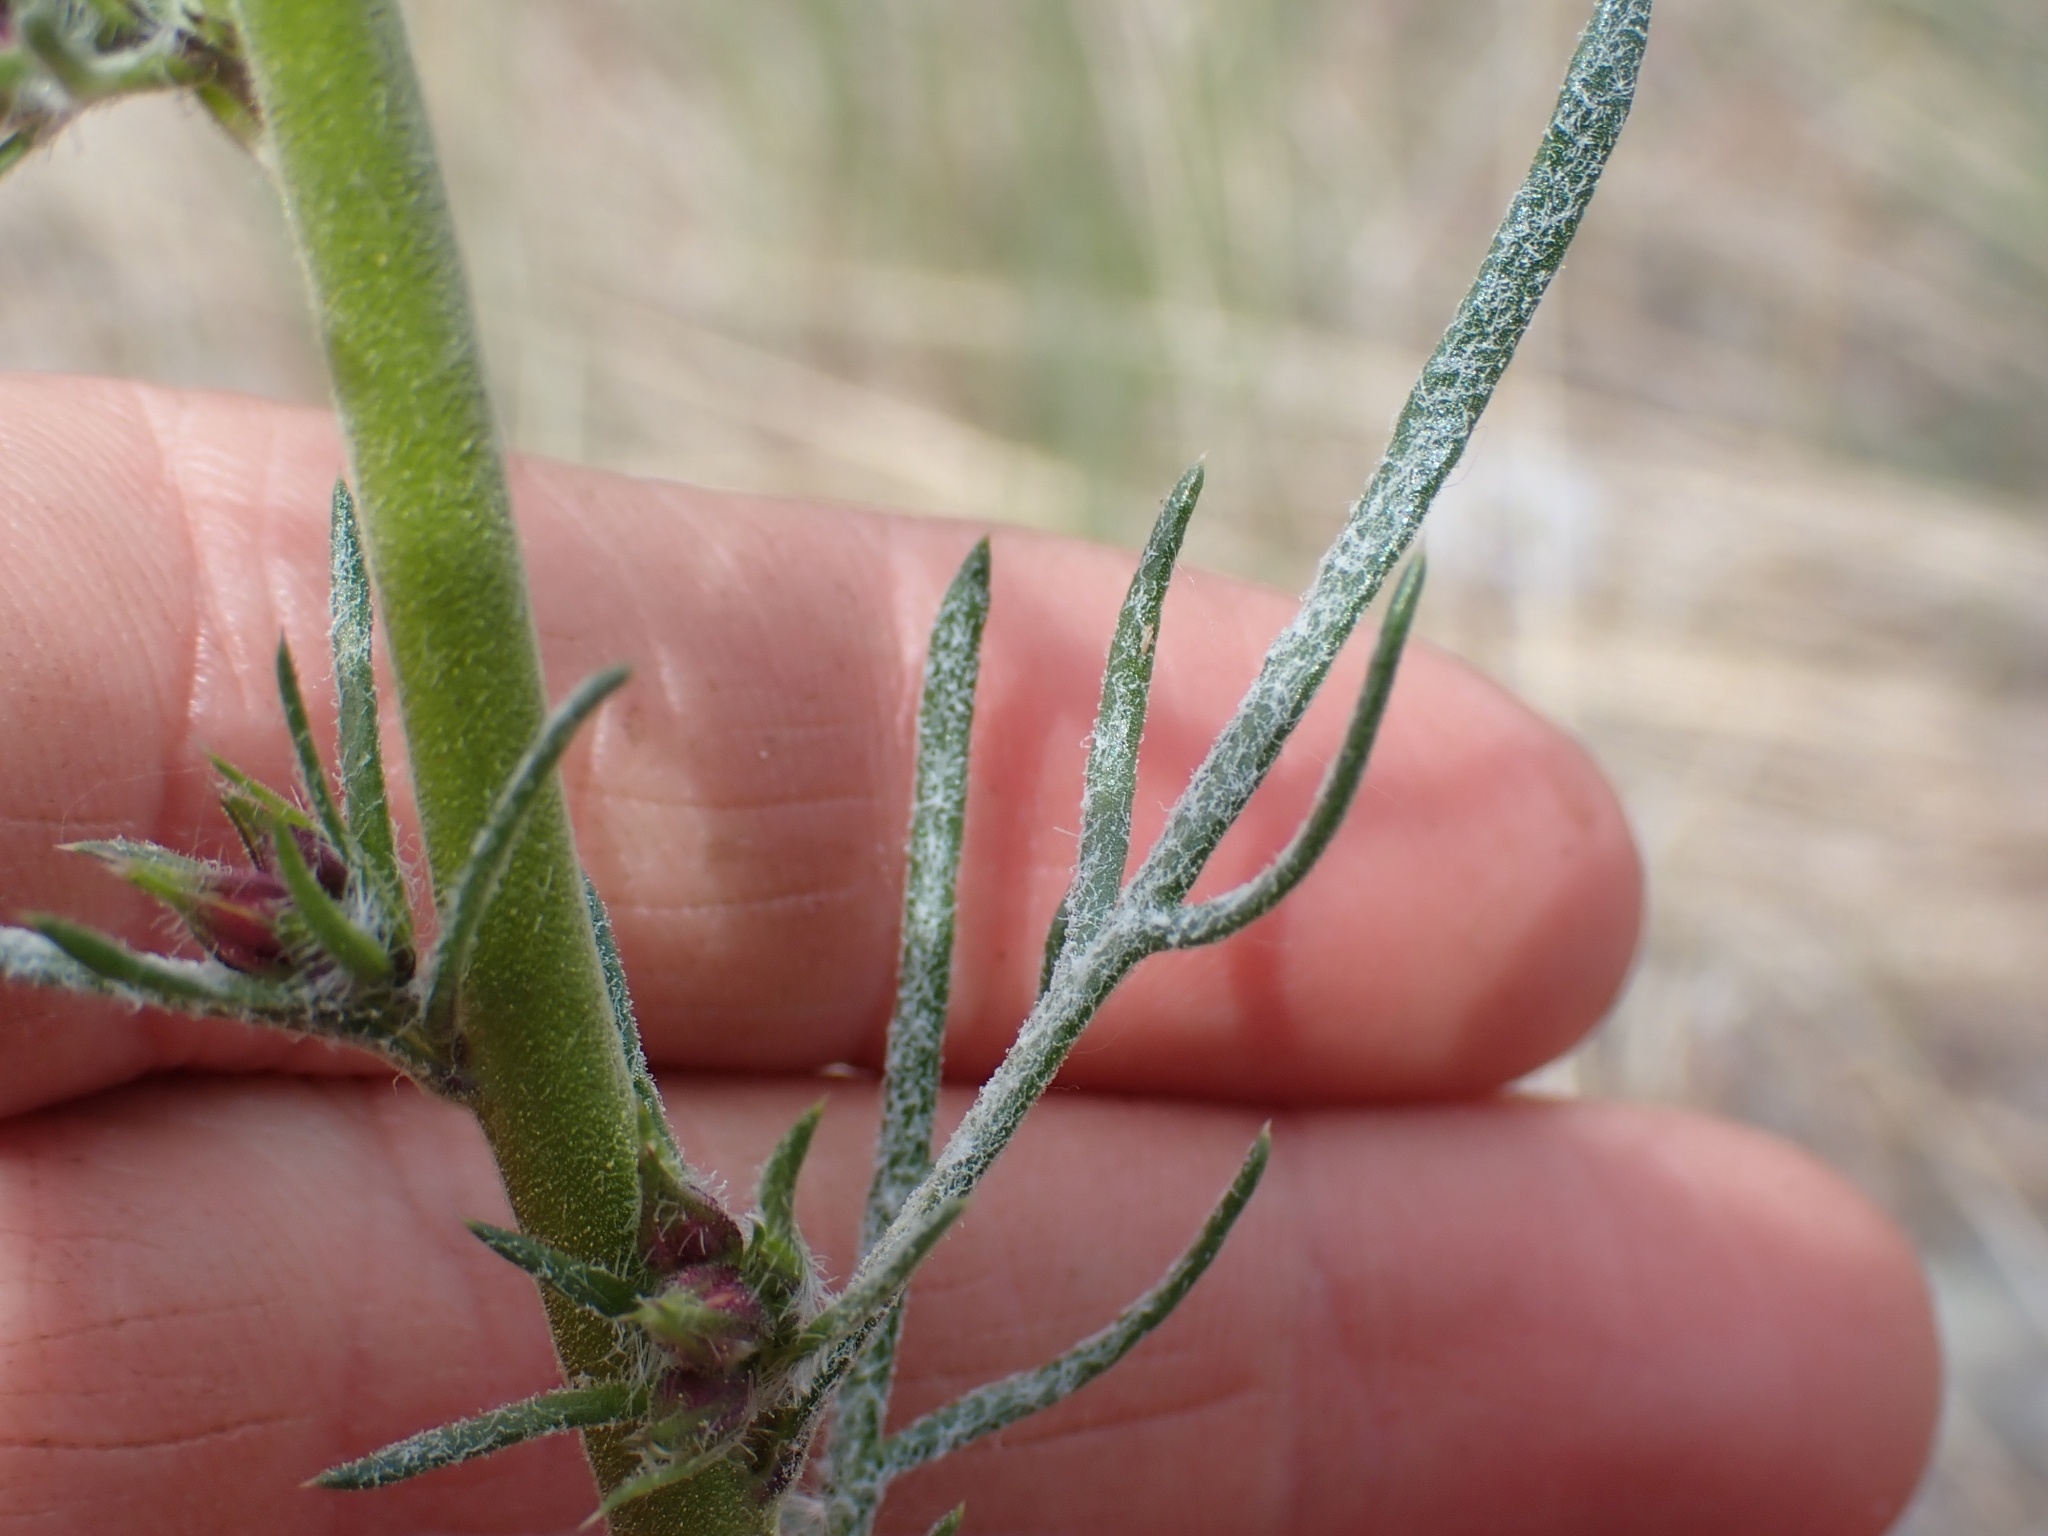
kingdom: Plantae
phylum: Tracheophyta
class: Magnoliopsida
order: Ericales
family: Polemoniaceae
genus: Ipomopsis
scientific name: Ipomopsis aggregata
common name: Scarlet gilia
